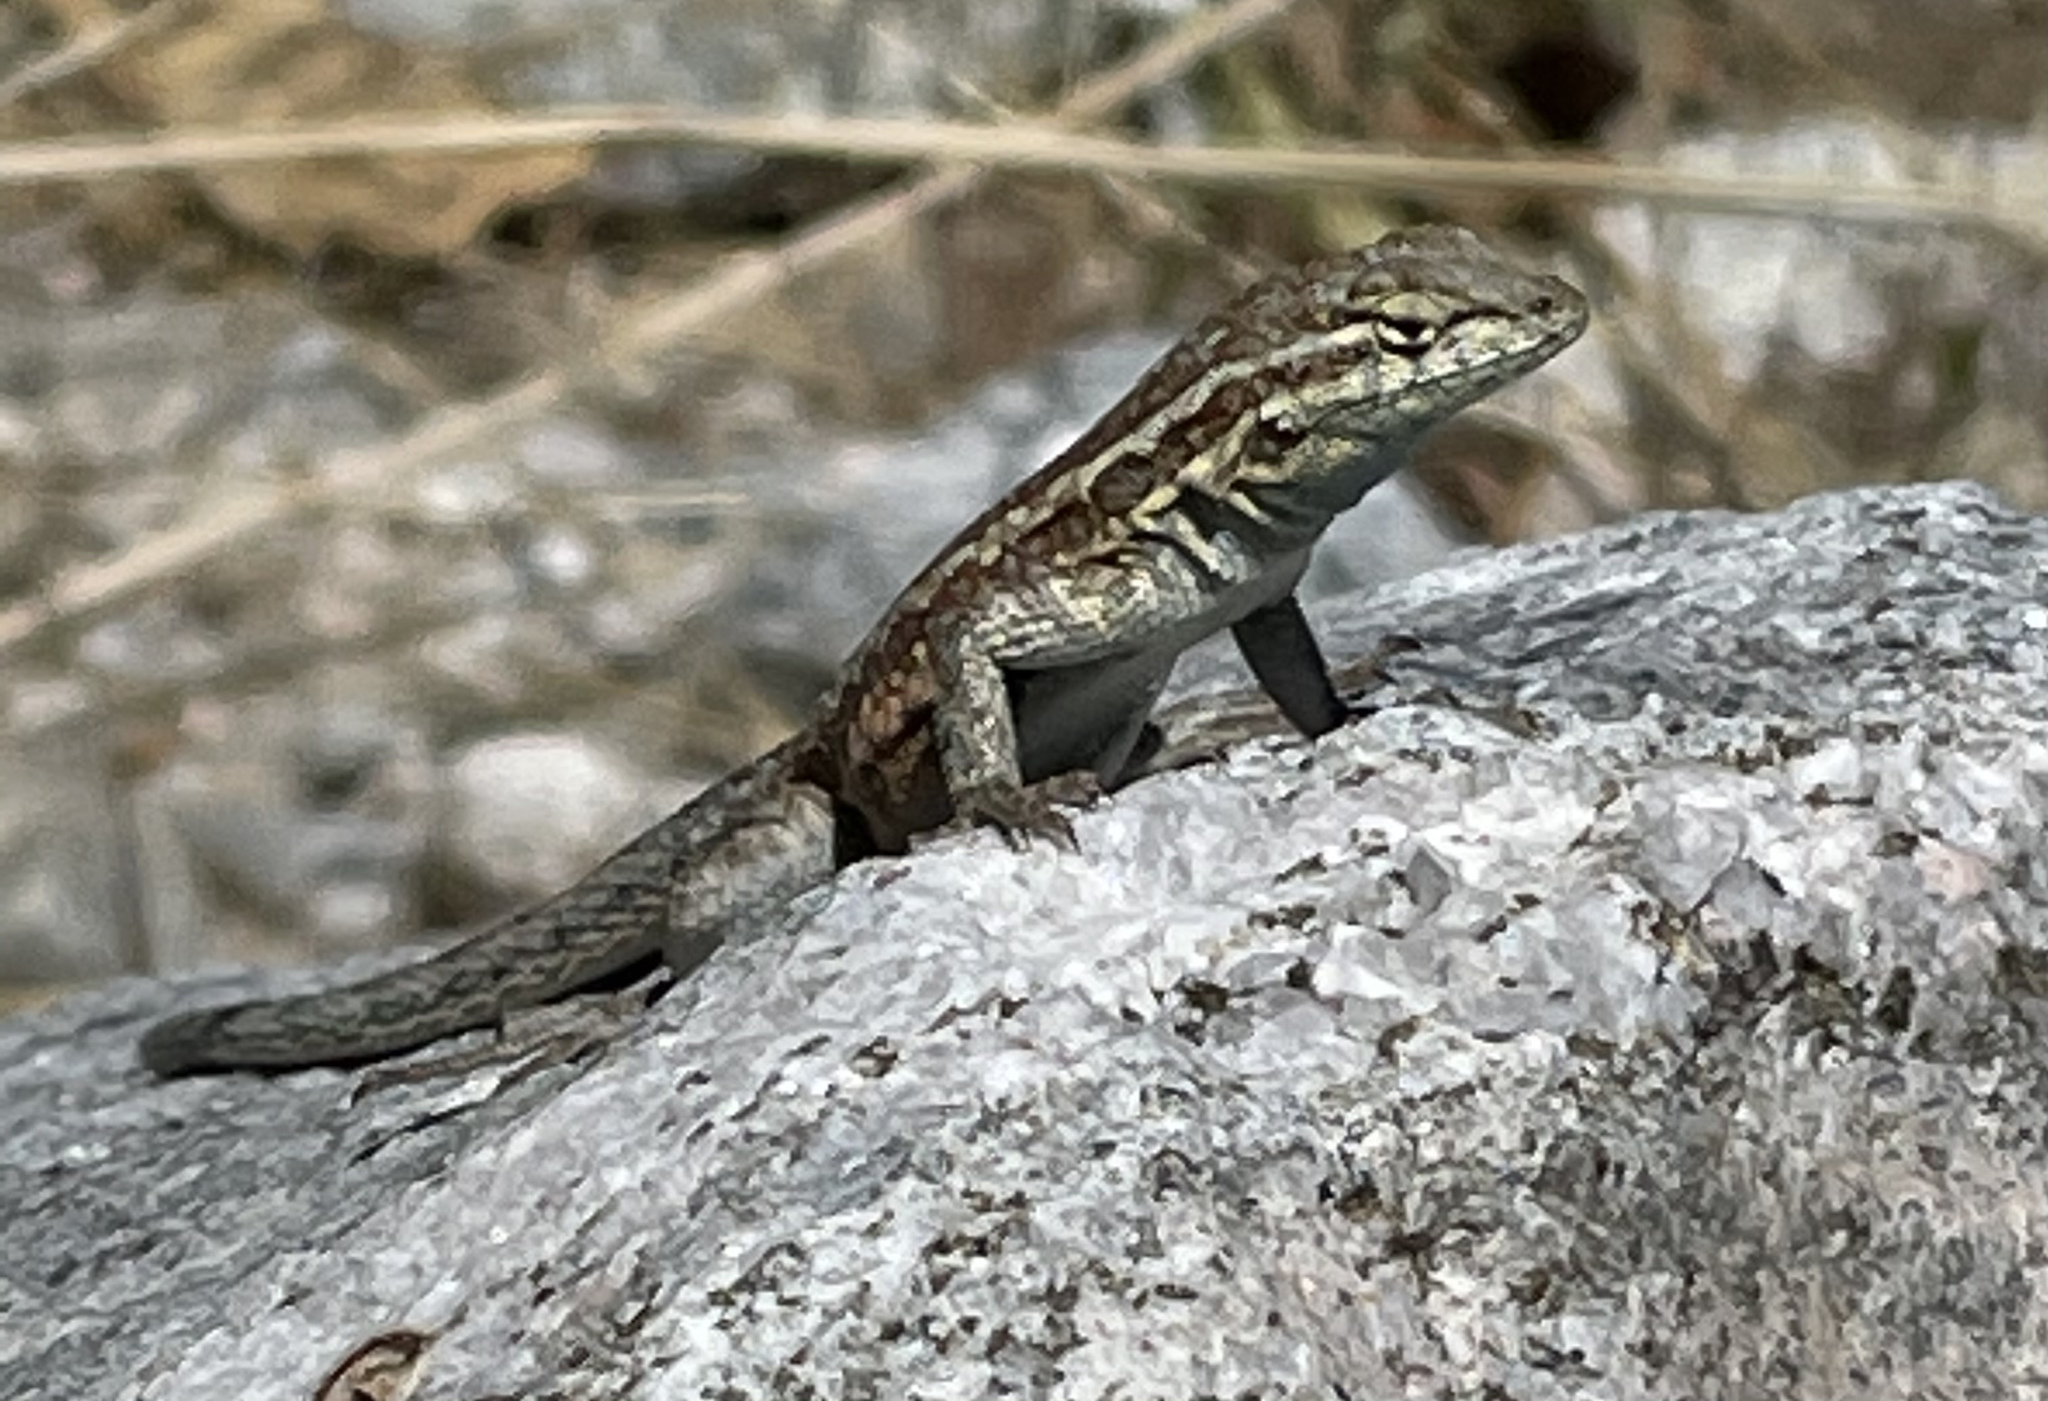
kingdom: Animalia
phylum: Chordata
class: Squamata
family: Phrynosomatidae
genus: Uta
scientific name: Uta stansburiana
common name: Side-blotched lizard
